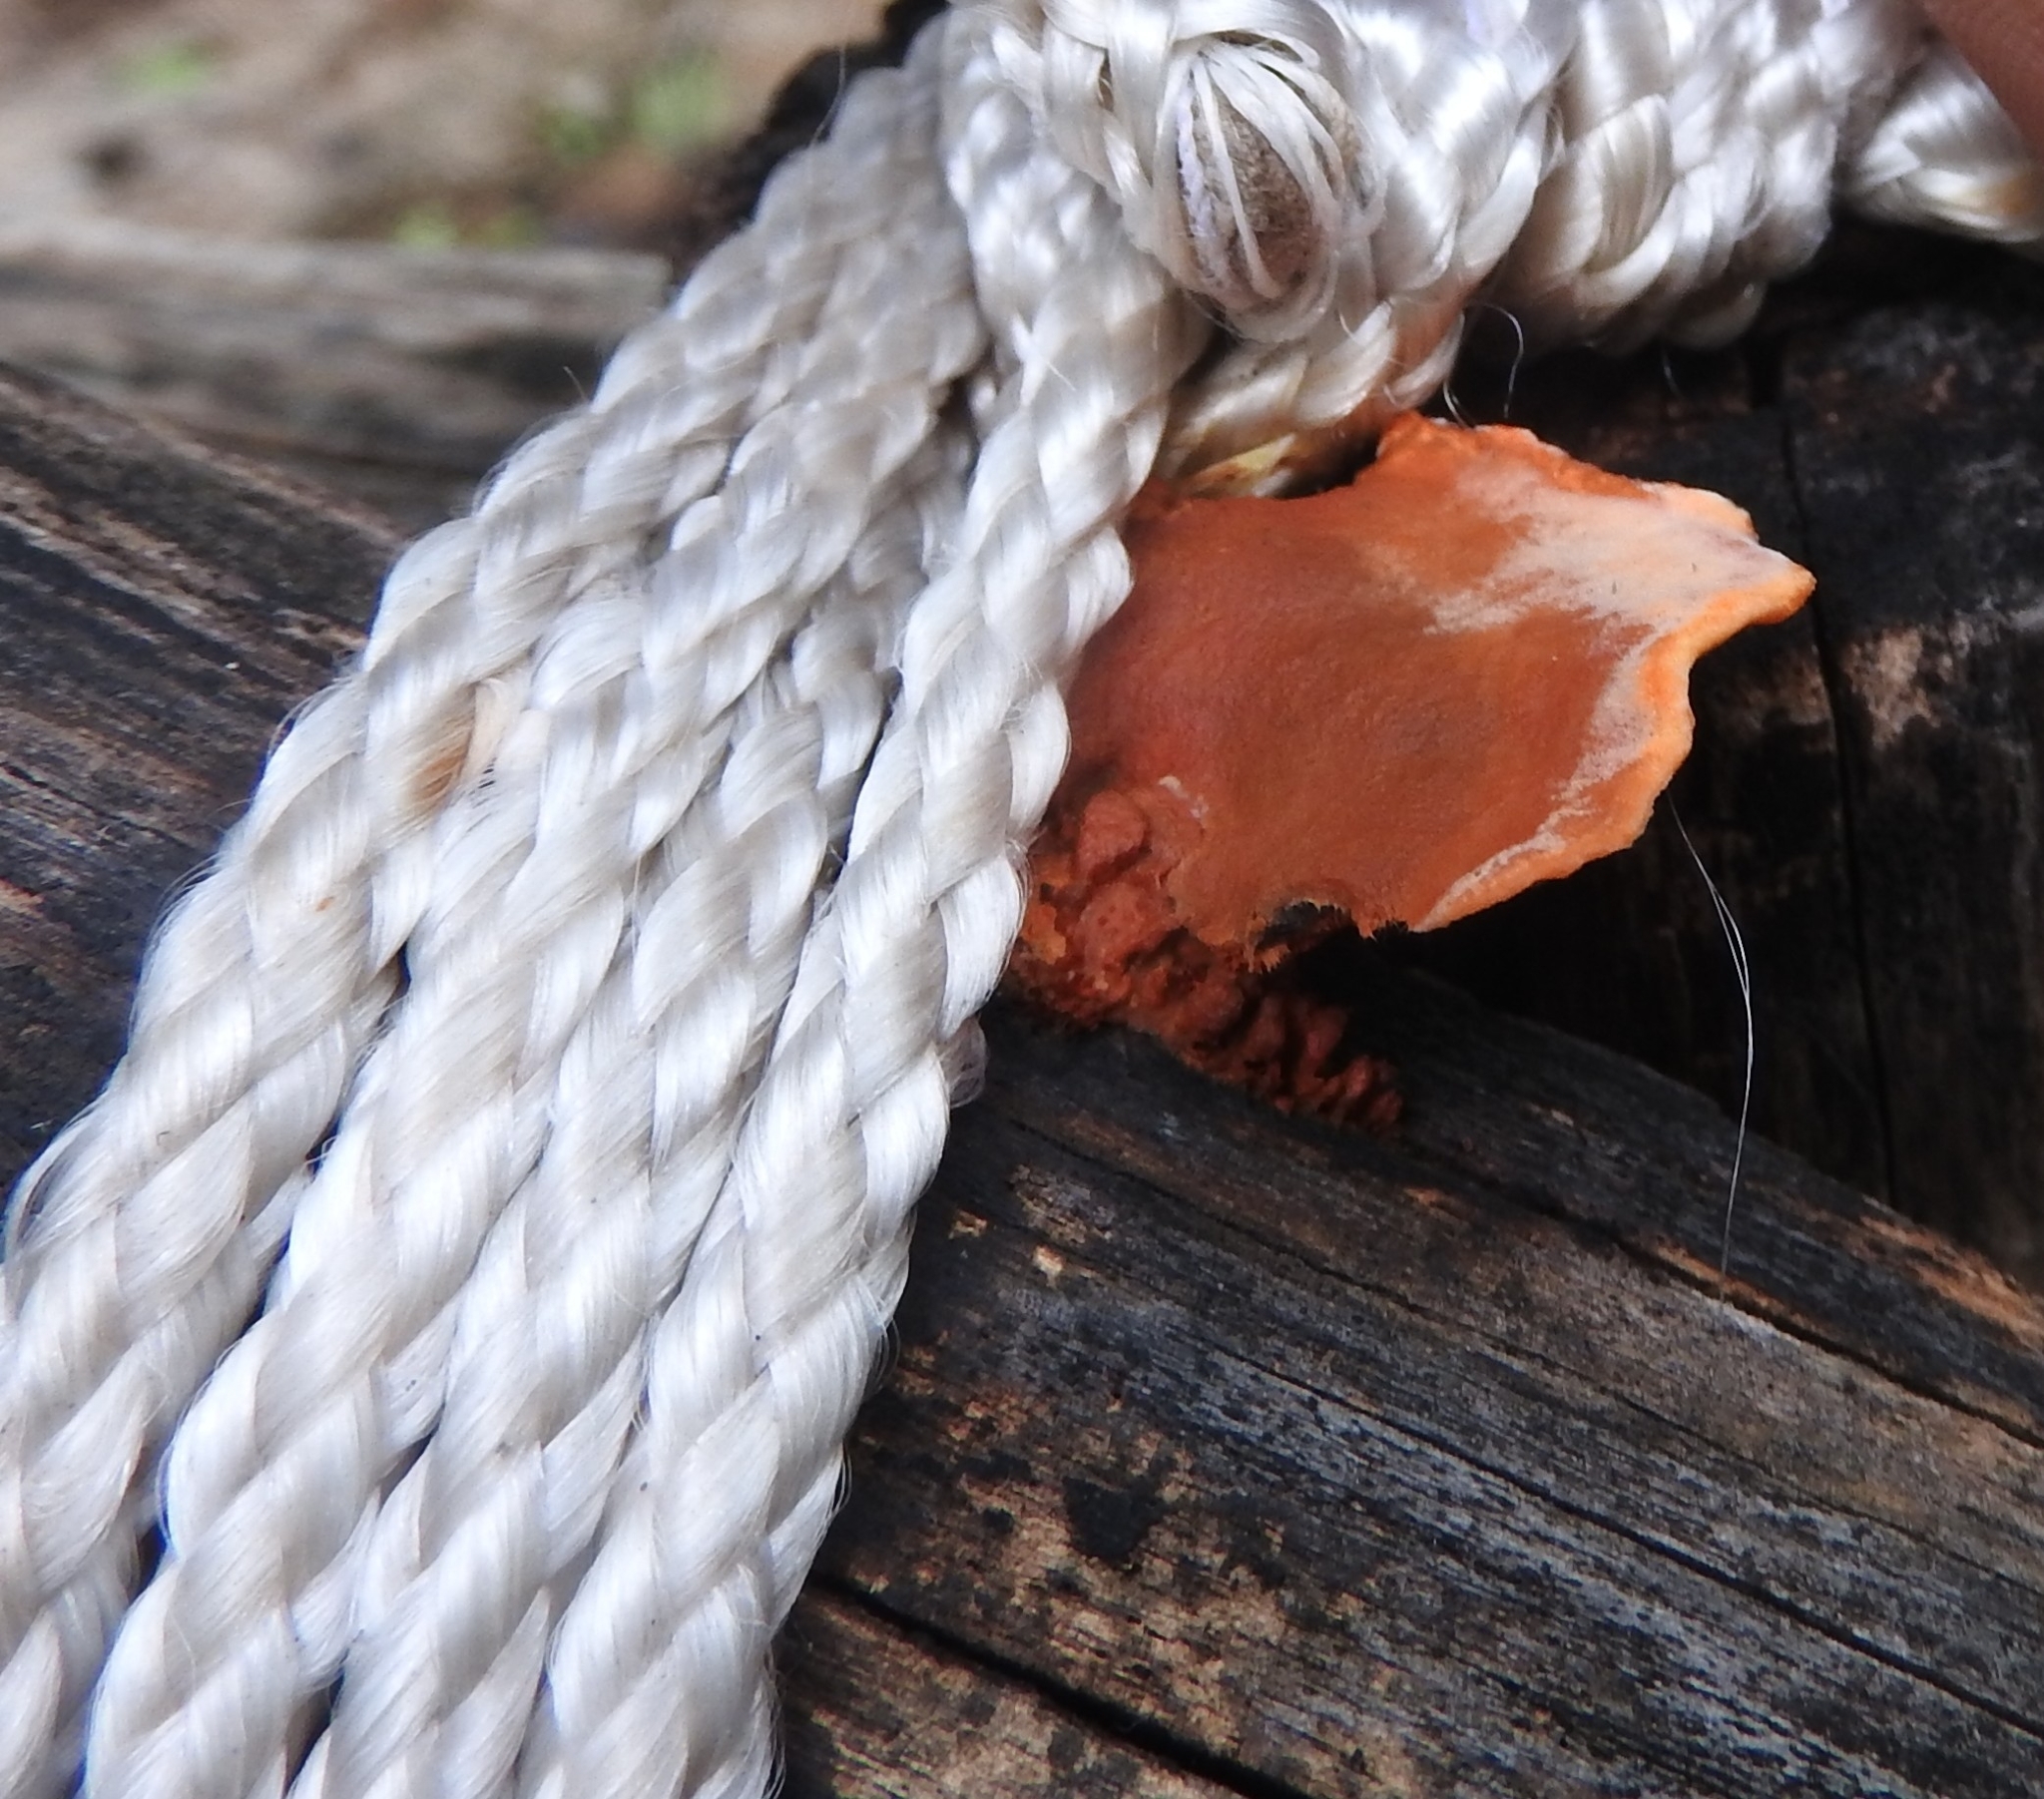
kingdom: Fungi
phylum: Basidiomycota
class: Agaricomycetes
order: Polyporales
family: Polyporaceae
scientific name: Polyporaceae
